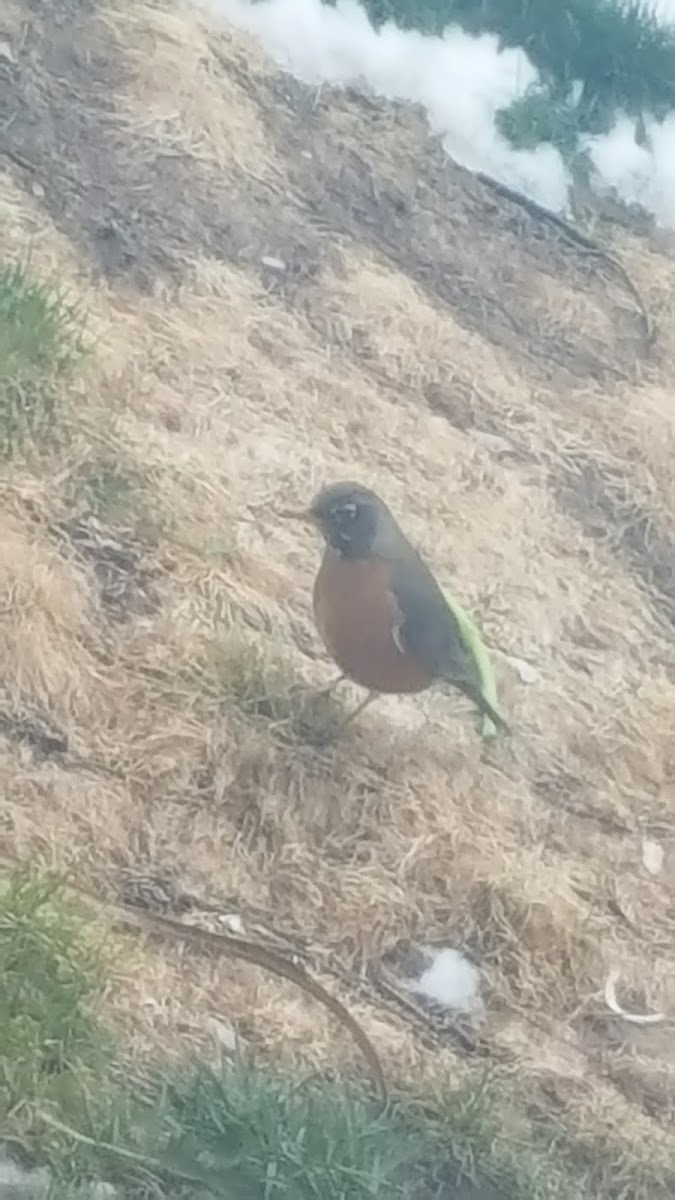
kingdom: Animalia
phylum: Chordata
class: Aves
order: Passeriformes
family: Turdidae
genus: Turdus
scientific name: Turdus migratorius
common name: American robin
